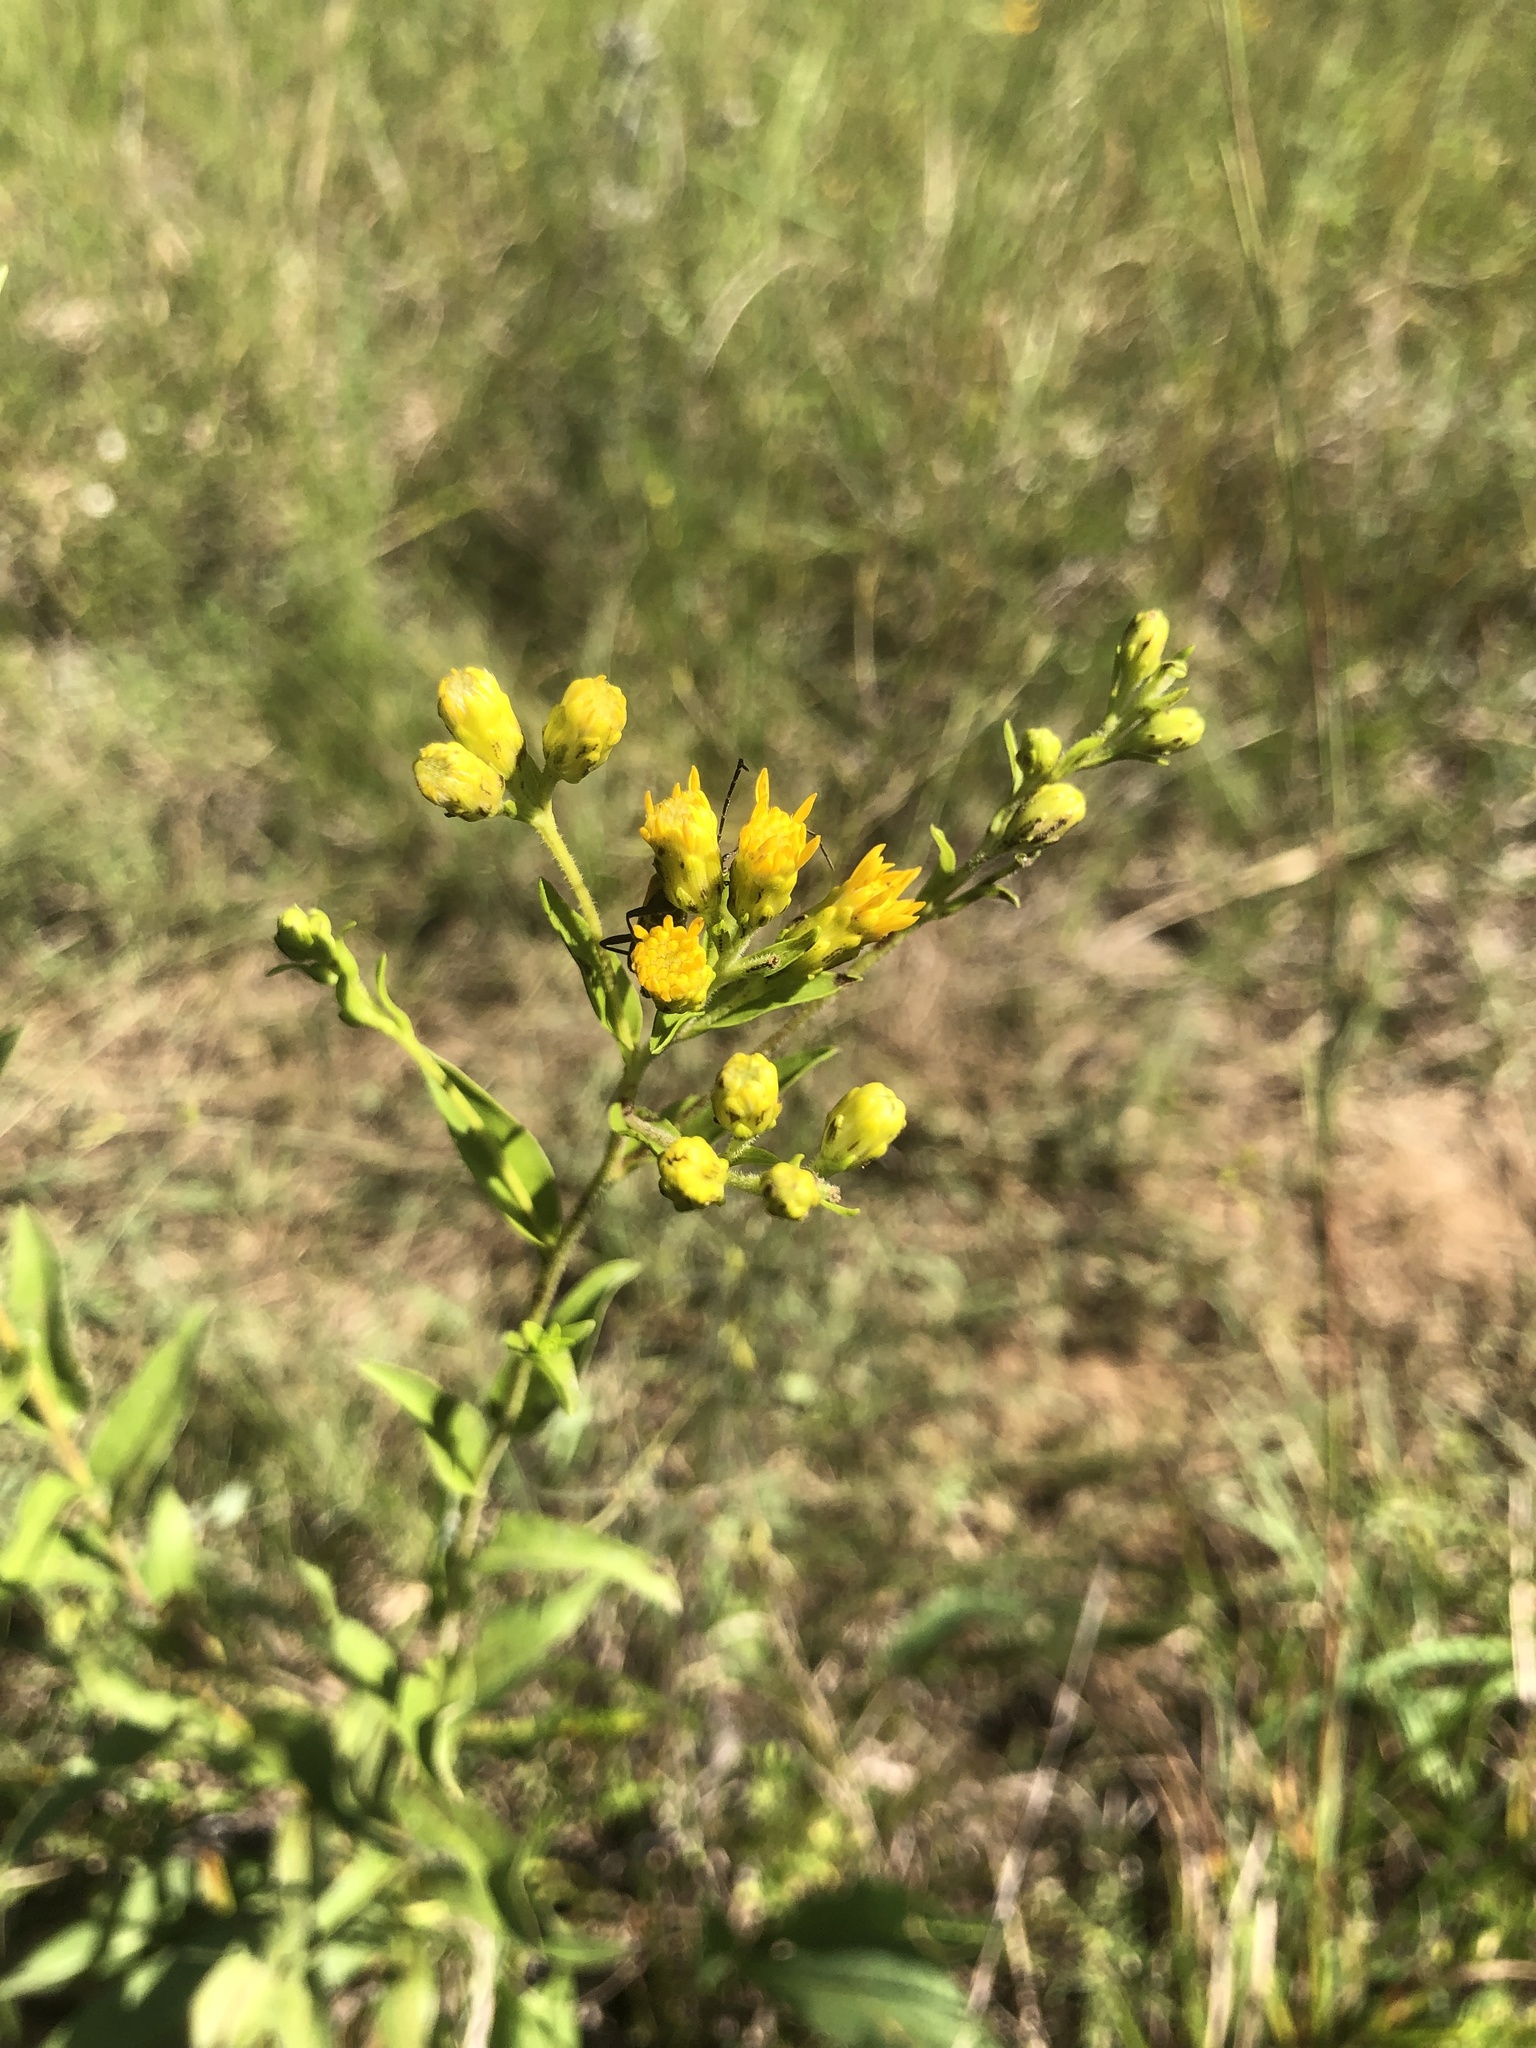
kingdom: Plantae
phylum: Tracheophyta
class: Magnoliopsida
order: Asterales
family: Asteraceae
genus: Solidago
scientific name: Solidago rigida
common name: Rigid goldenrod
